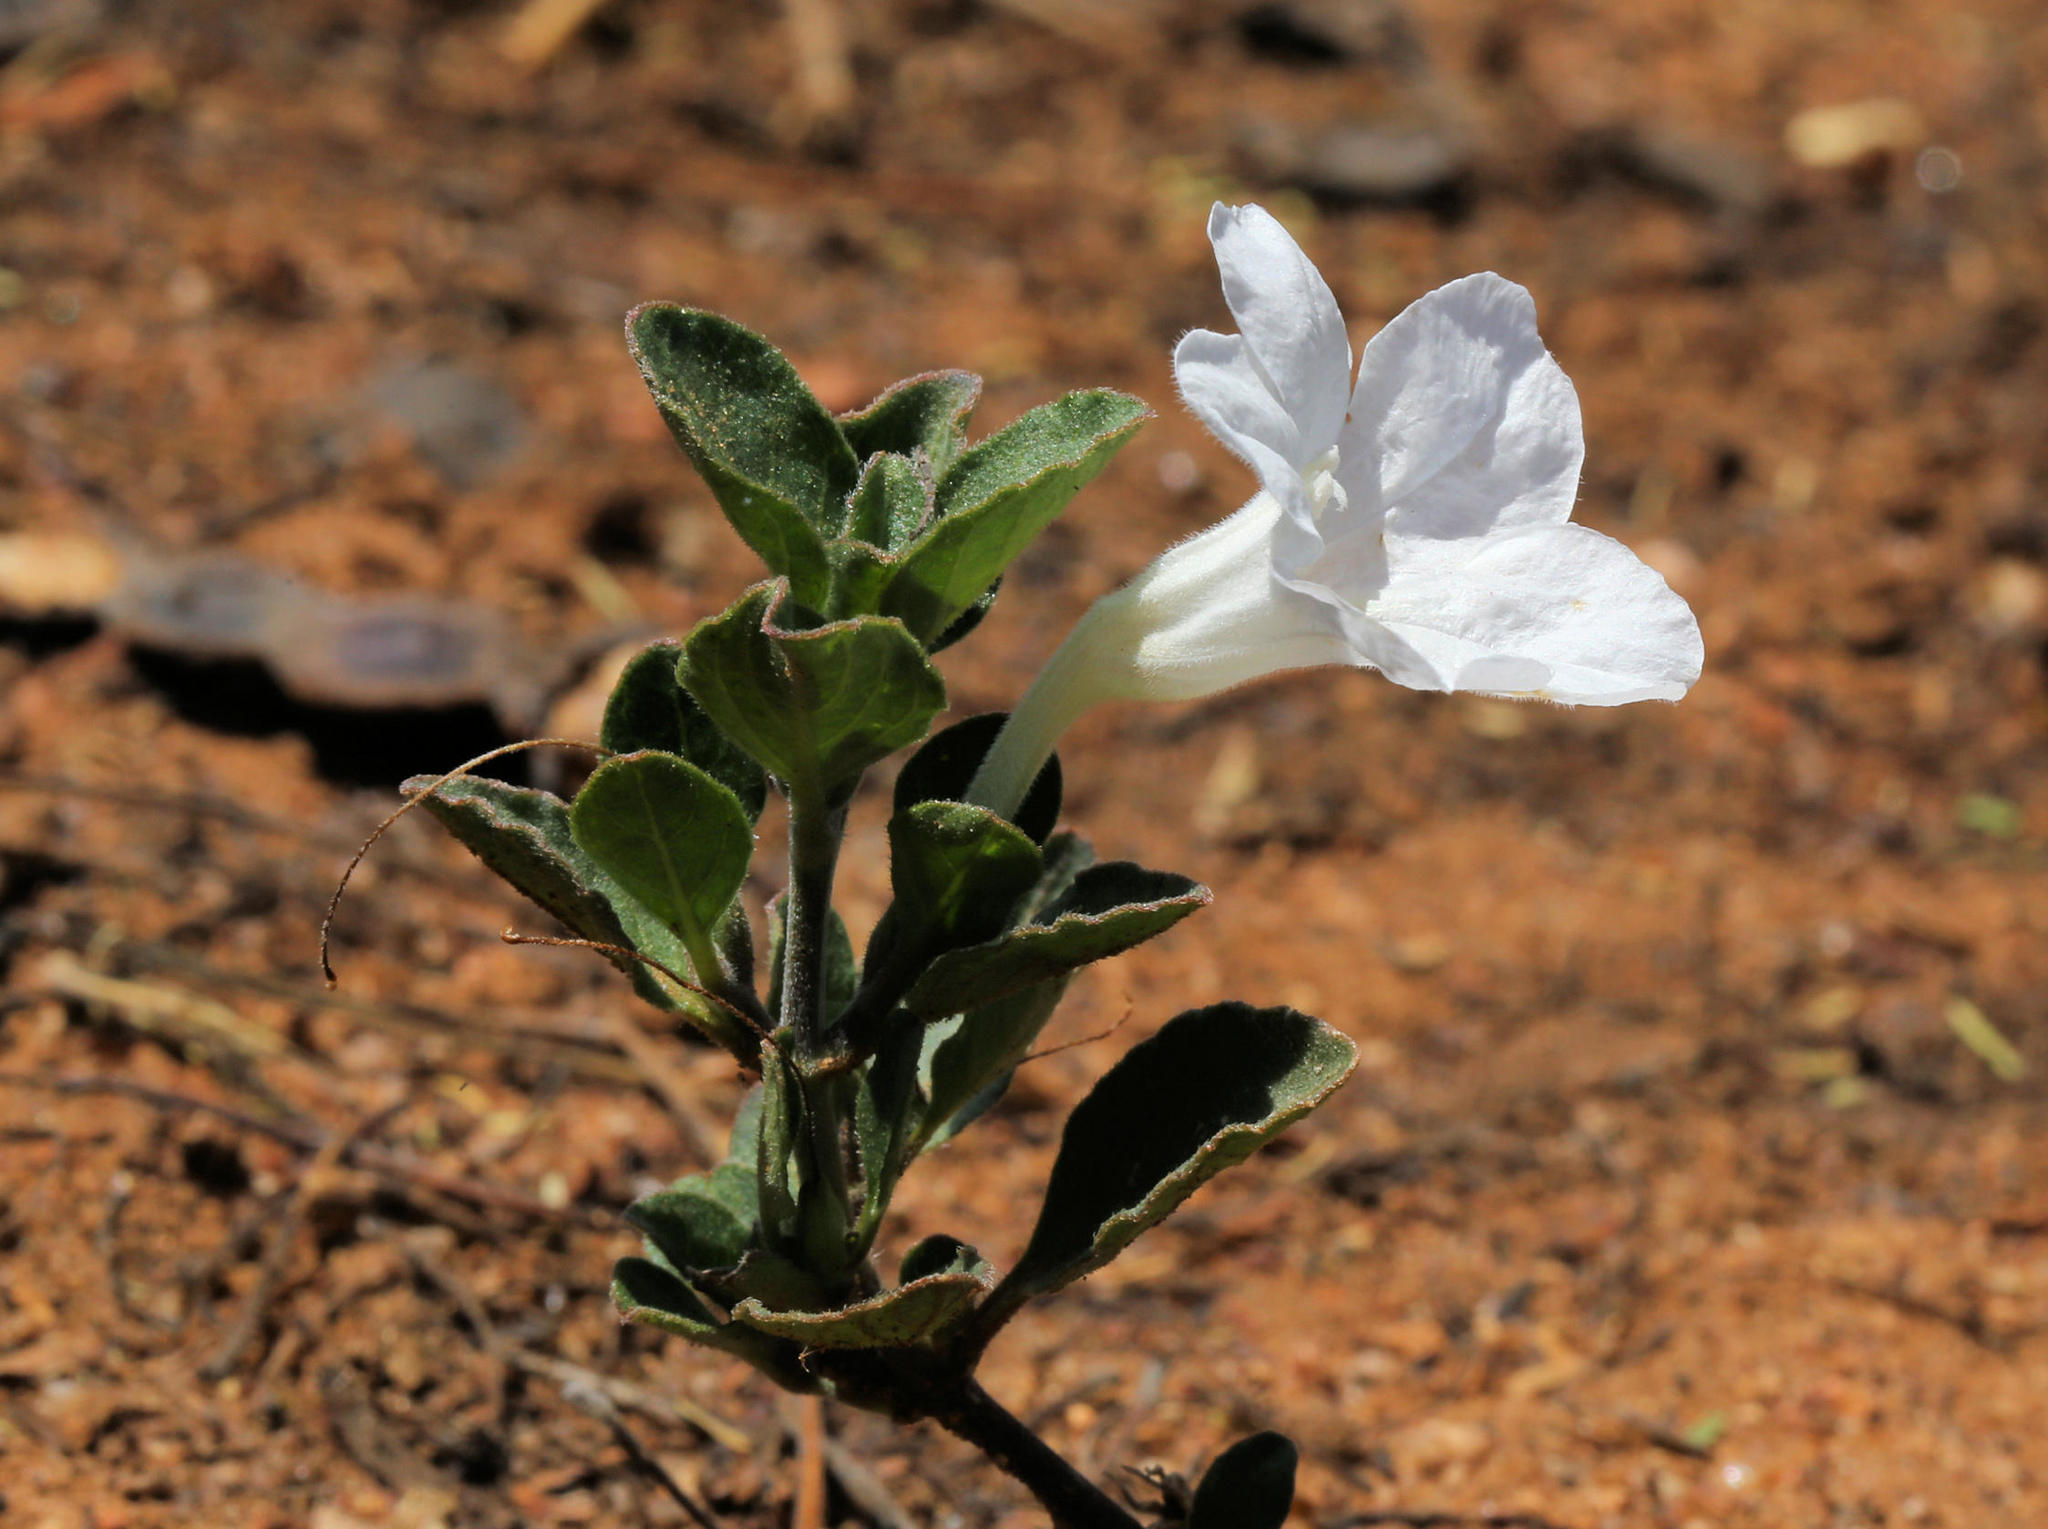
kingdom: Plantae
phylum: Tracheophyta
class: Magnoliopsida
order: Lamiales
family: Acanthaceae
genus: Ruellia
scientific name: Ruellia patula
